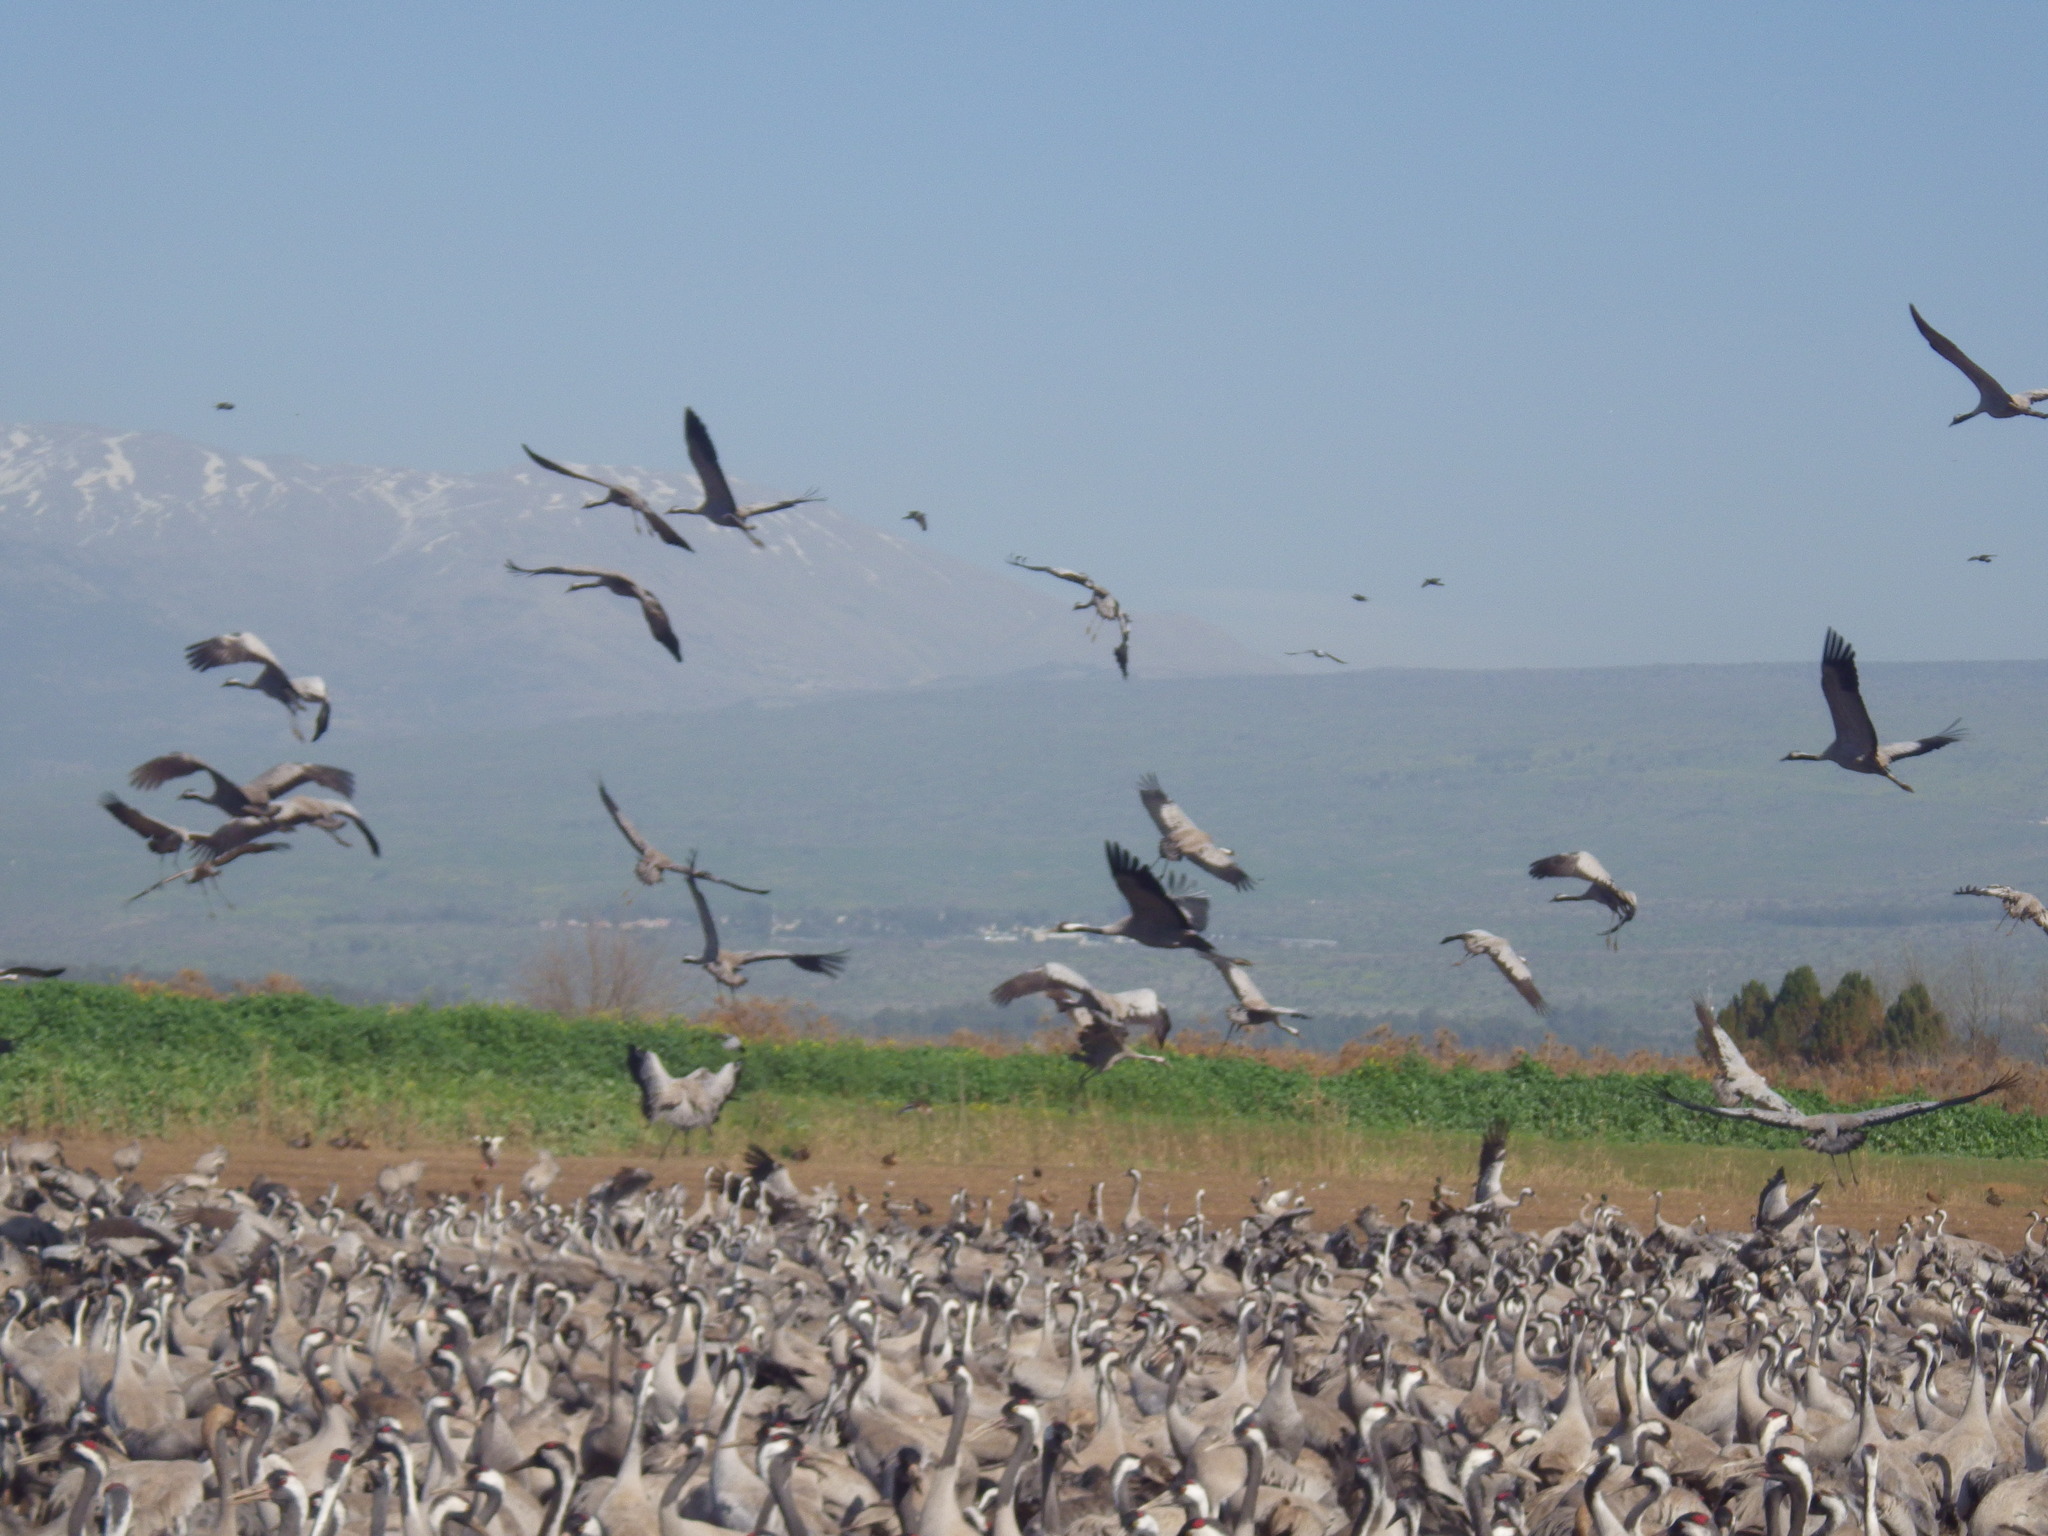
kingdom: Animalia
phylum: Chordata
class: Aves
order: Gruiformes
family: Gruidae
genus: Grus
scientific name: Grus grus
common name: Common crane
